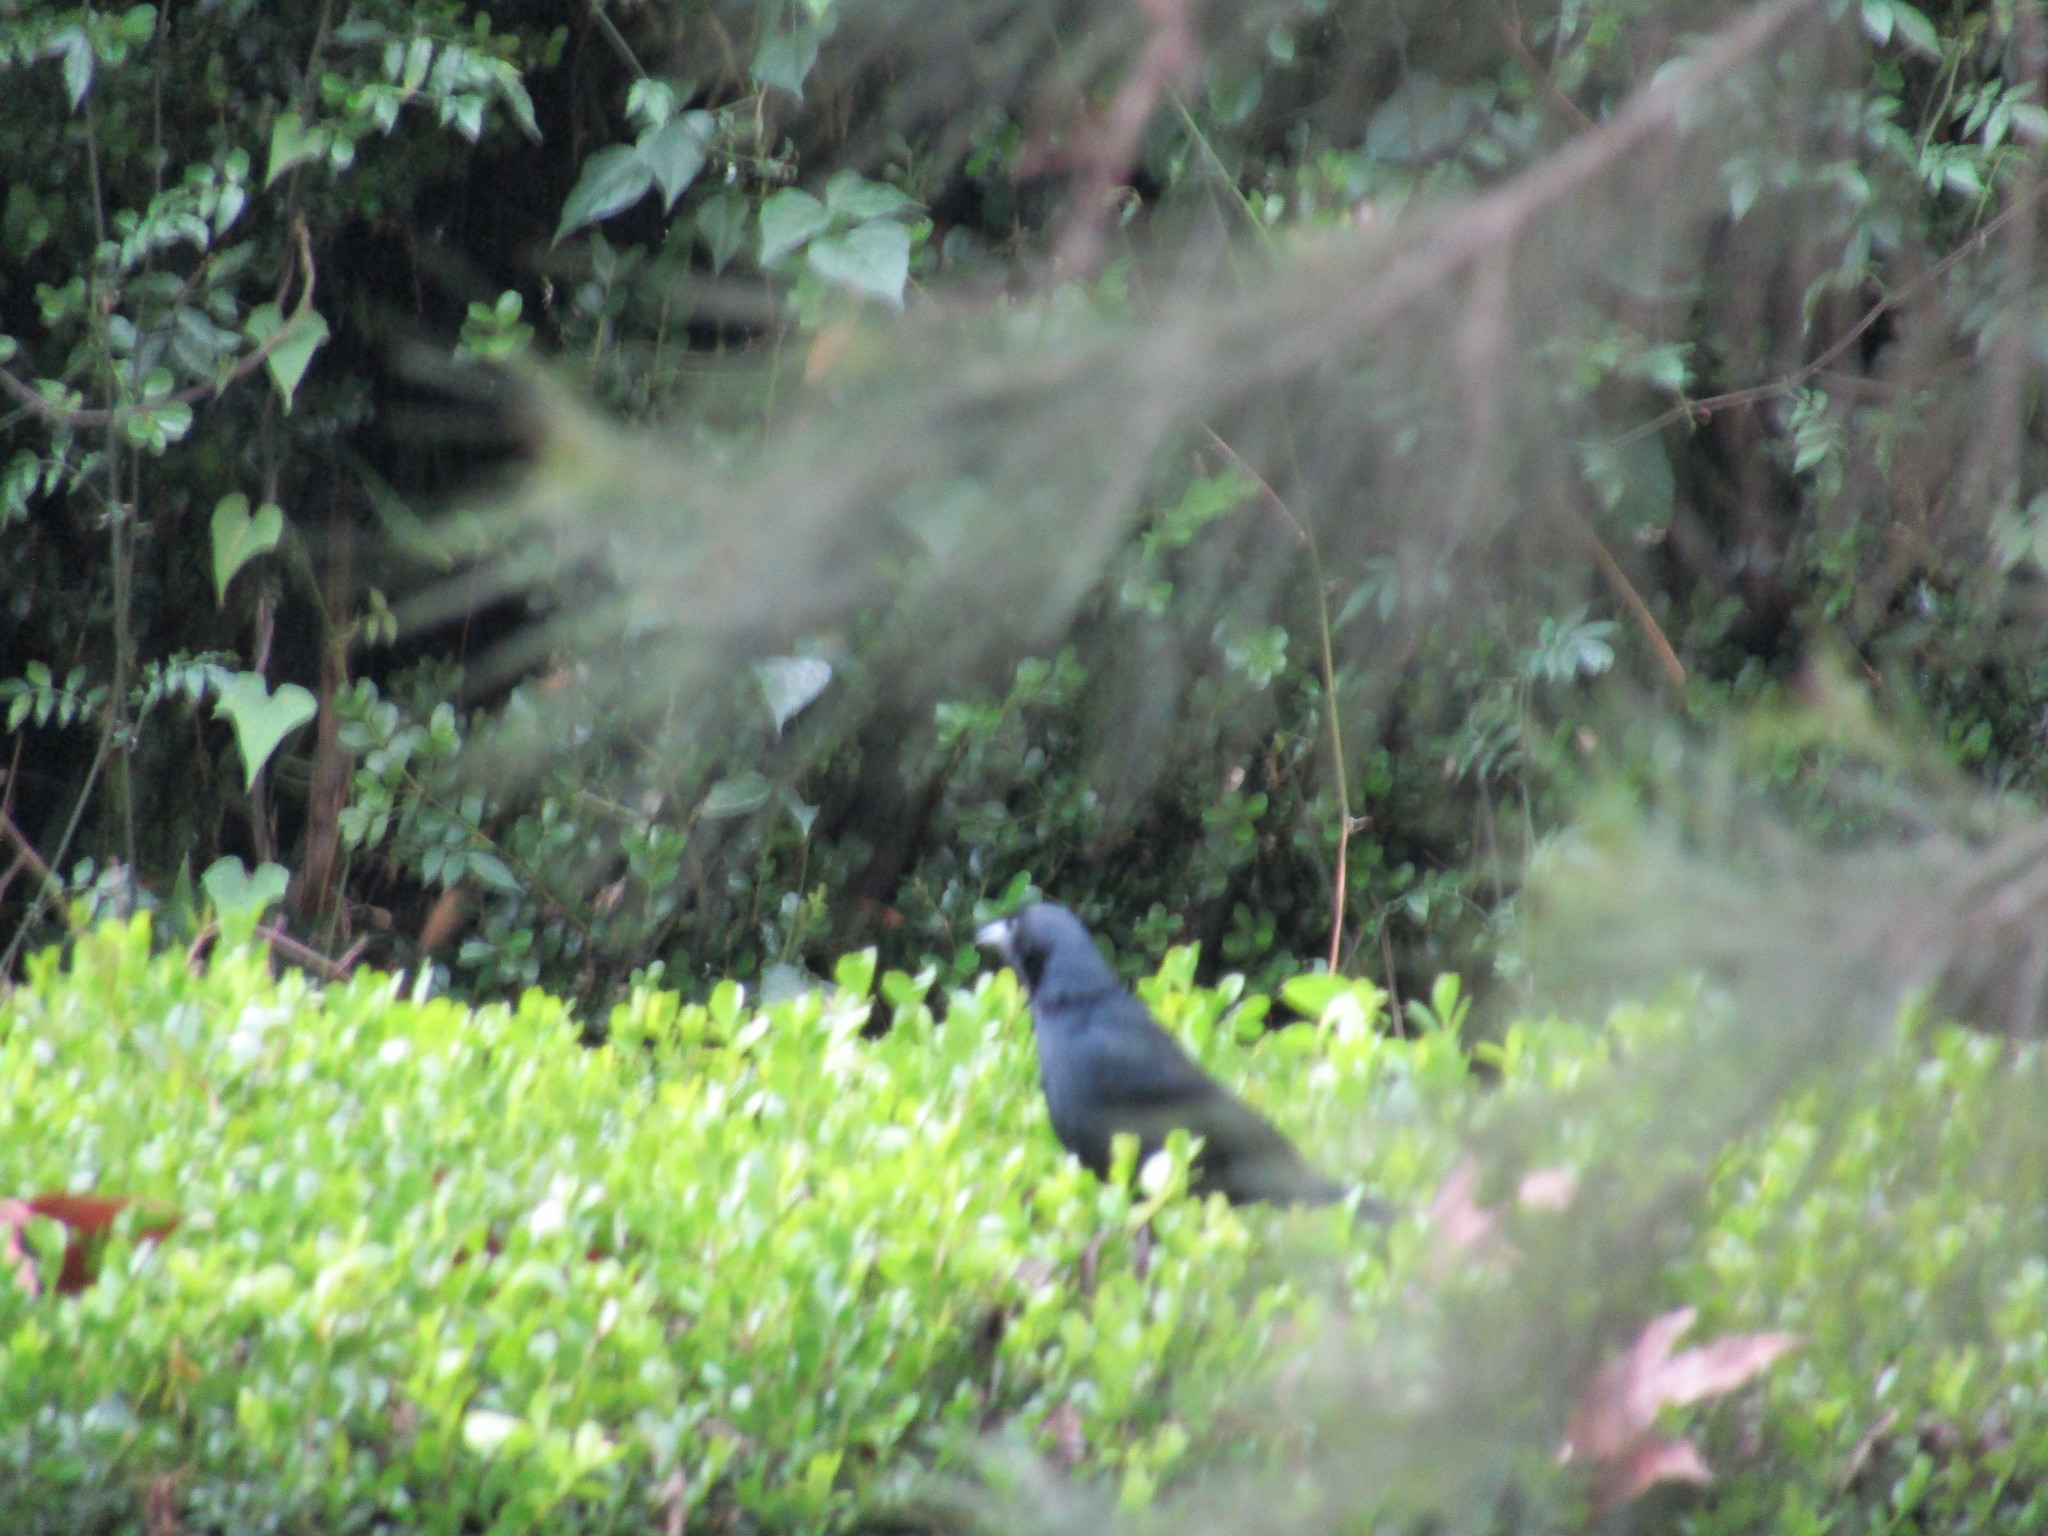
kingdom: Animalia
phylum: Chordata
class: Aves
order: Passeriformes
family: Mimidae
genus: Melanotis
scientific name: Melanotis caerulescens
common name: Blue mockingbird
